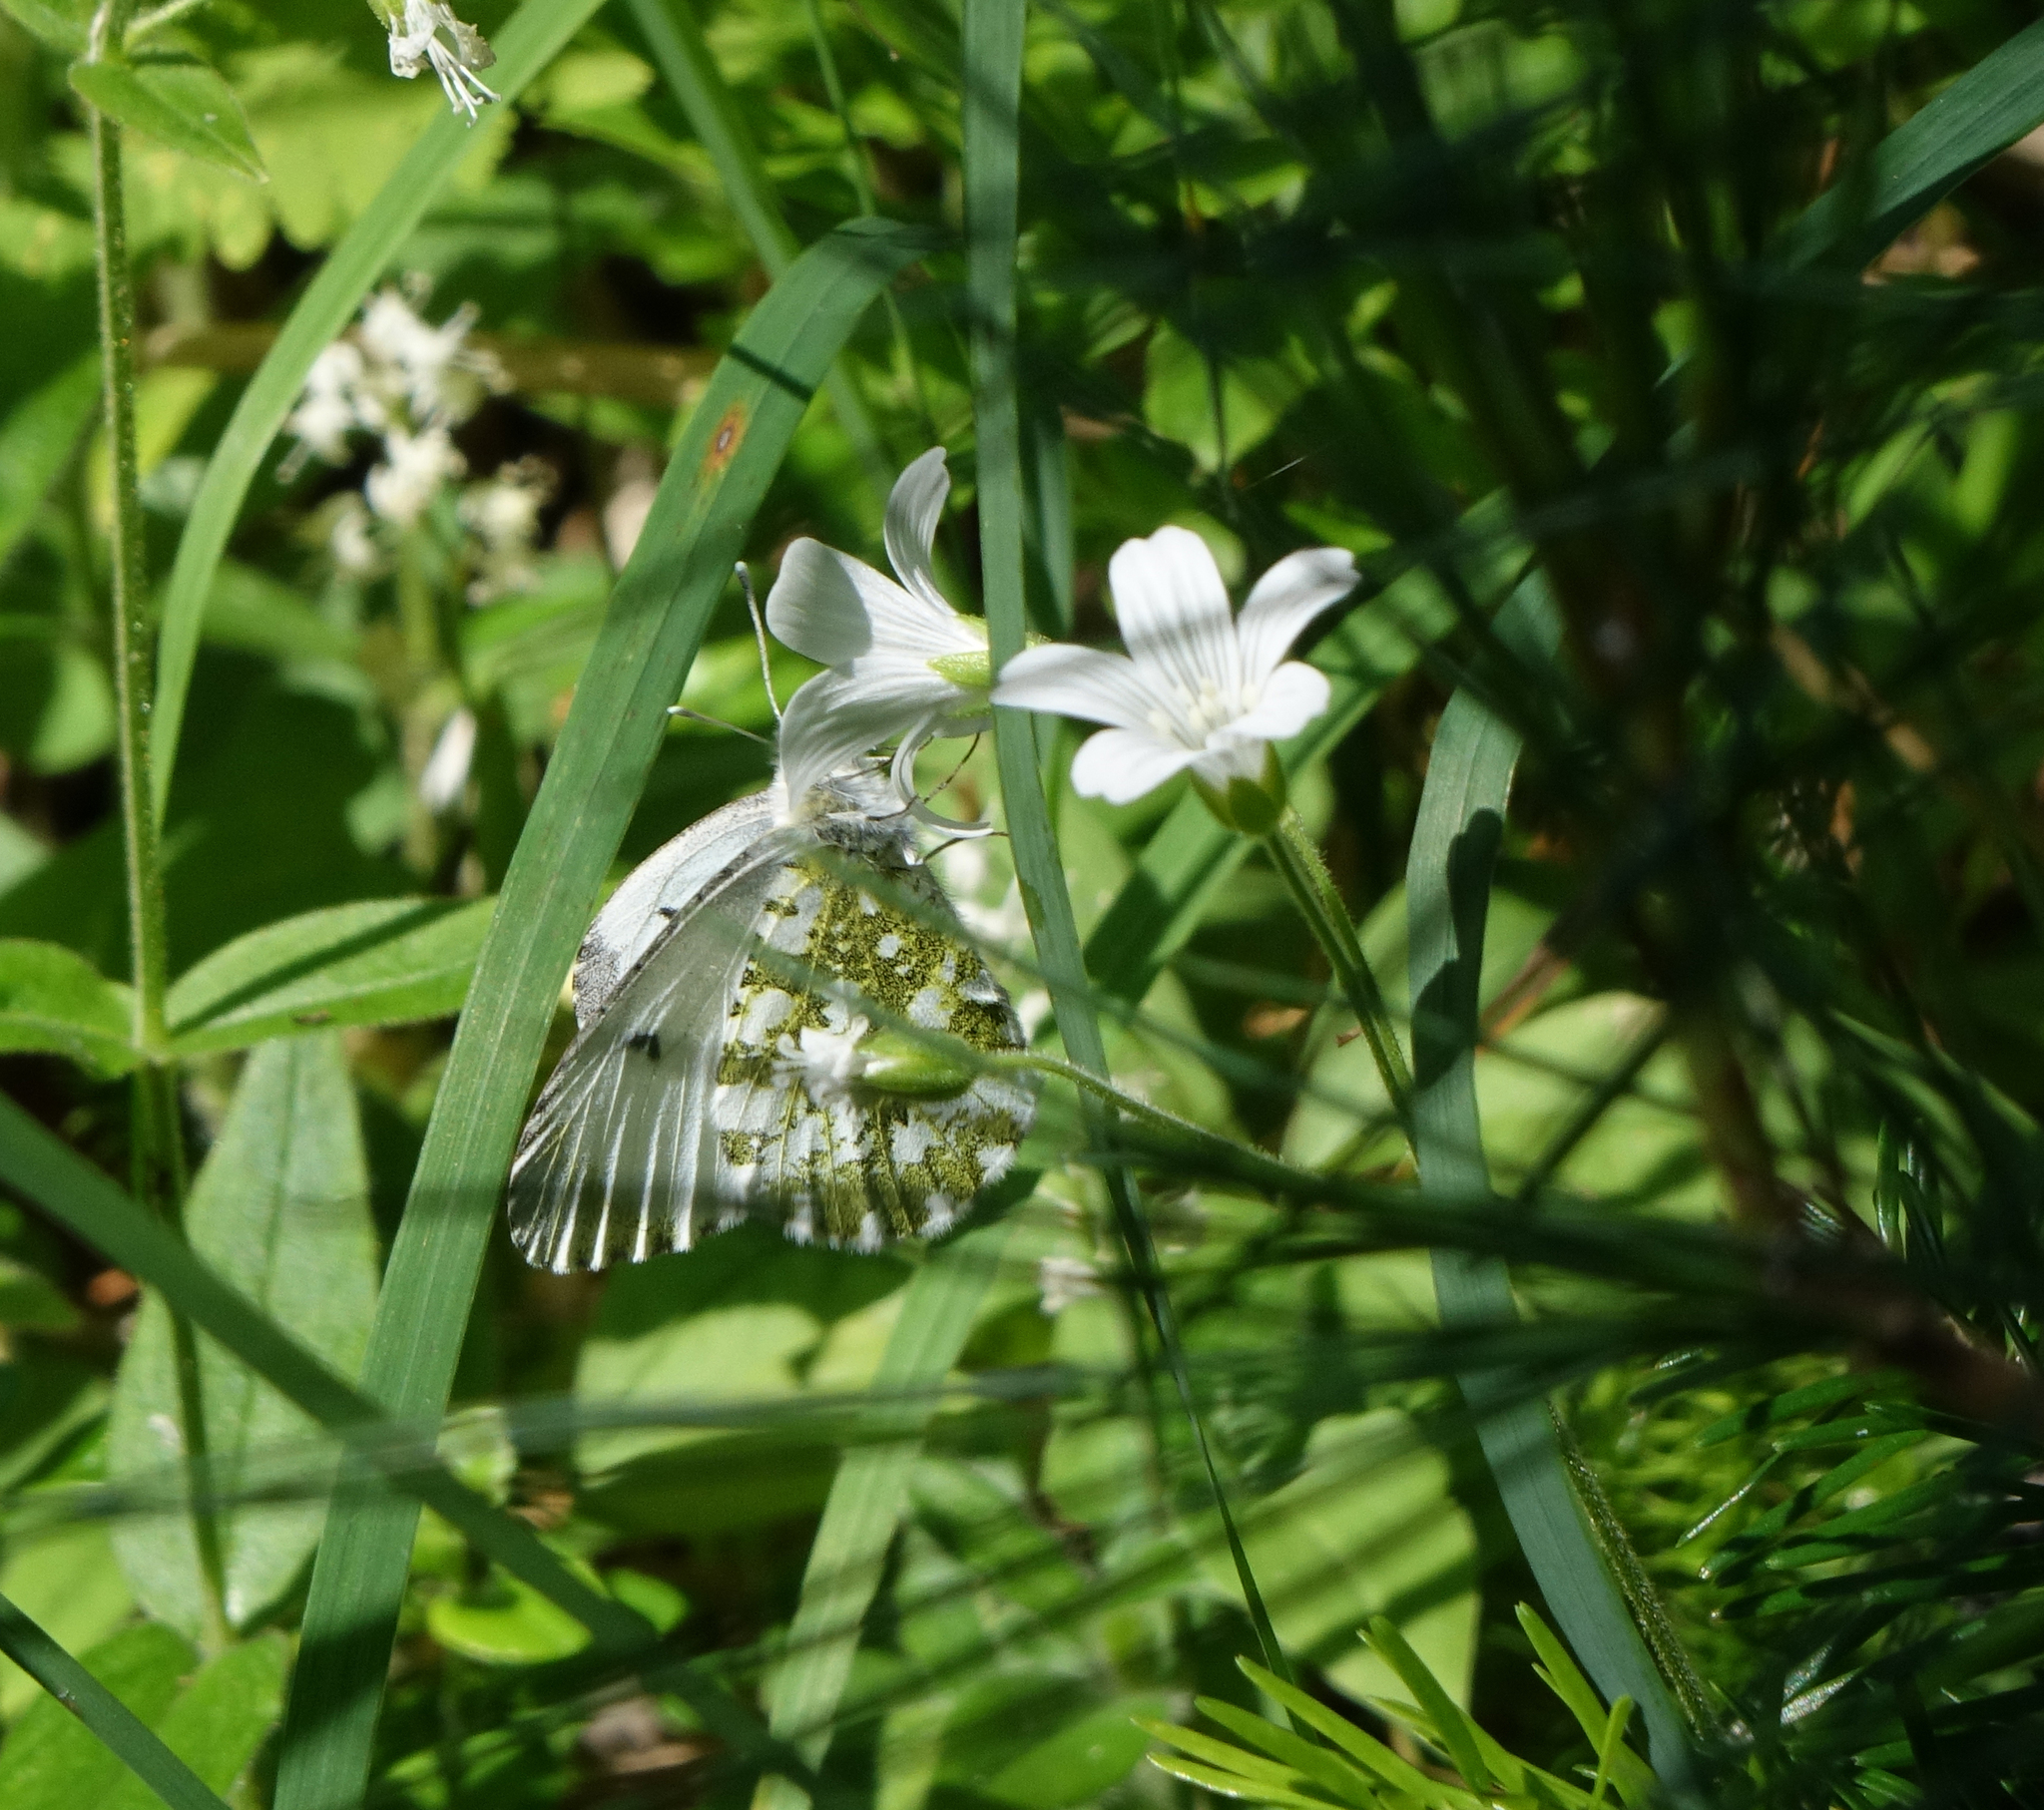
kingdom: Animalia
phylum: Arthropoda
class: Insecta
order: Lepidoptera
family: Pieridae
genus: Anthocharis
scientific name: Anthocharis cardamines
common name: Orange-tip
